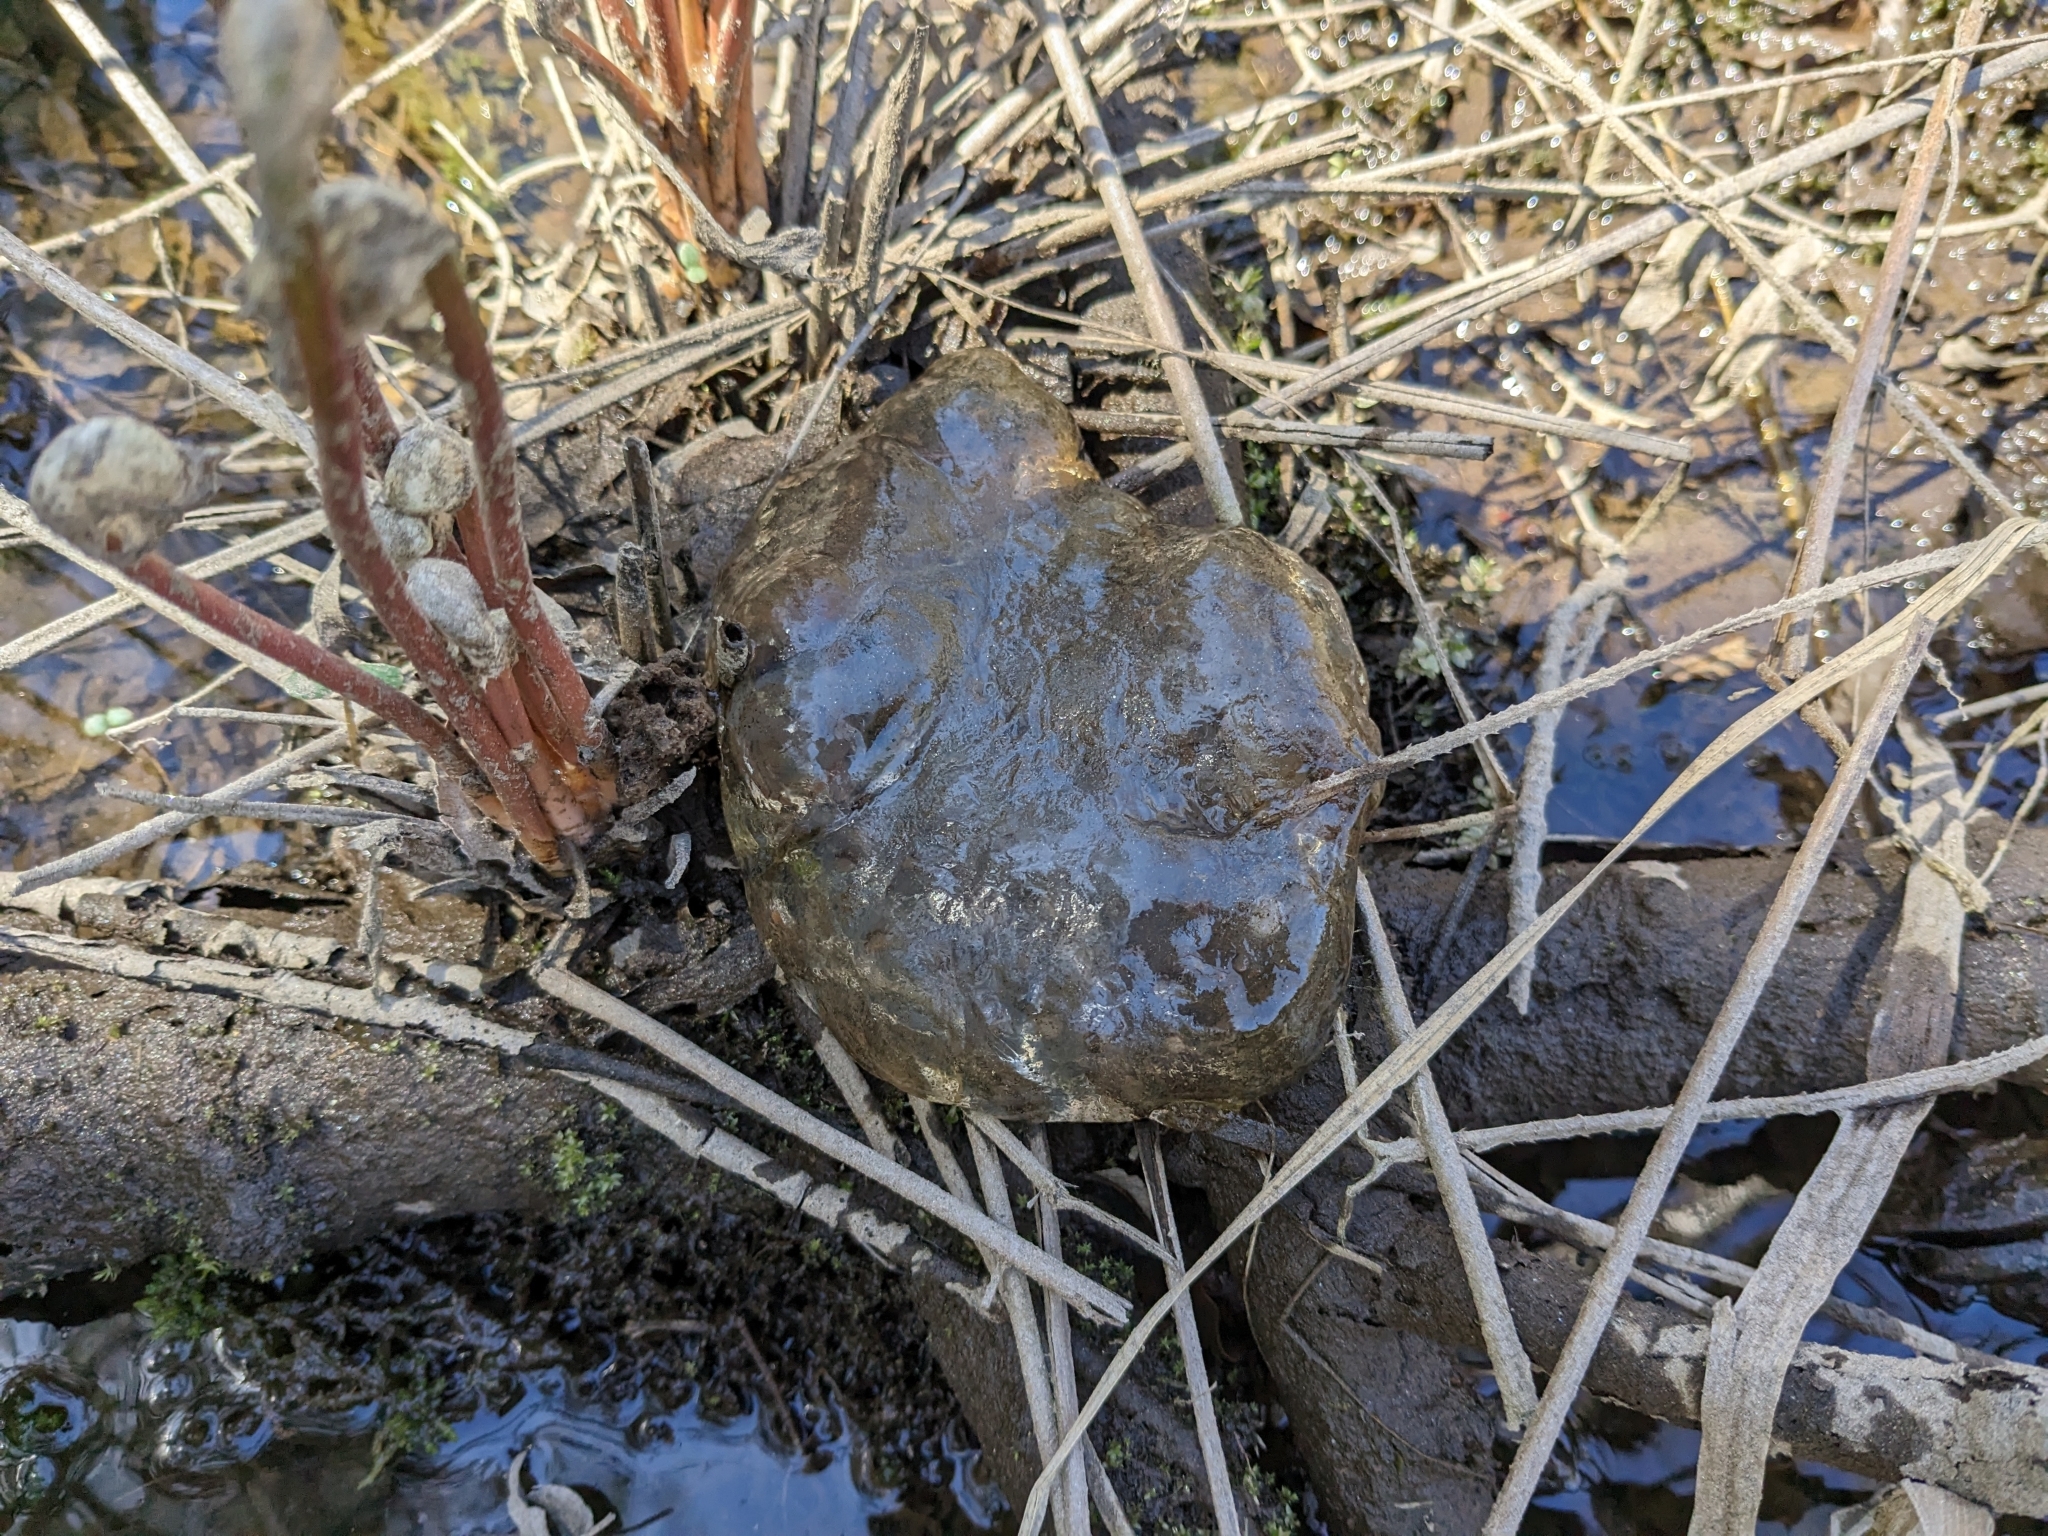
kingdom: Animalia
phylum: Chordata
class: Amphibia
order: Caudata
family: Ambystomatidae
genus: Ambystoma
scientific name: Ambystoma maculatum
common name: Spotted salamander
